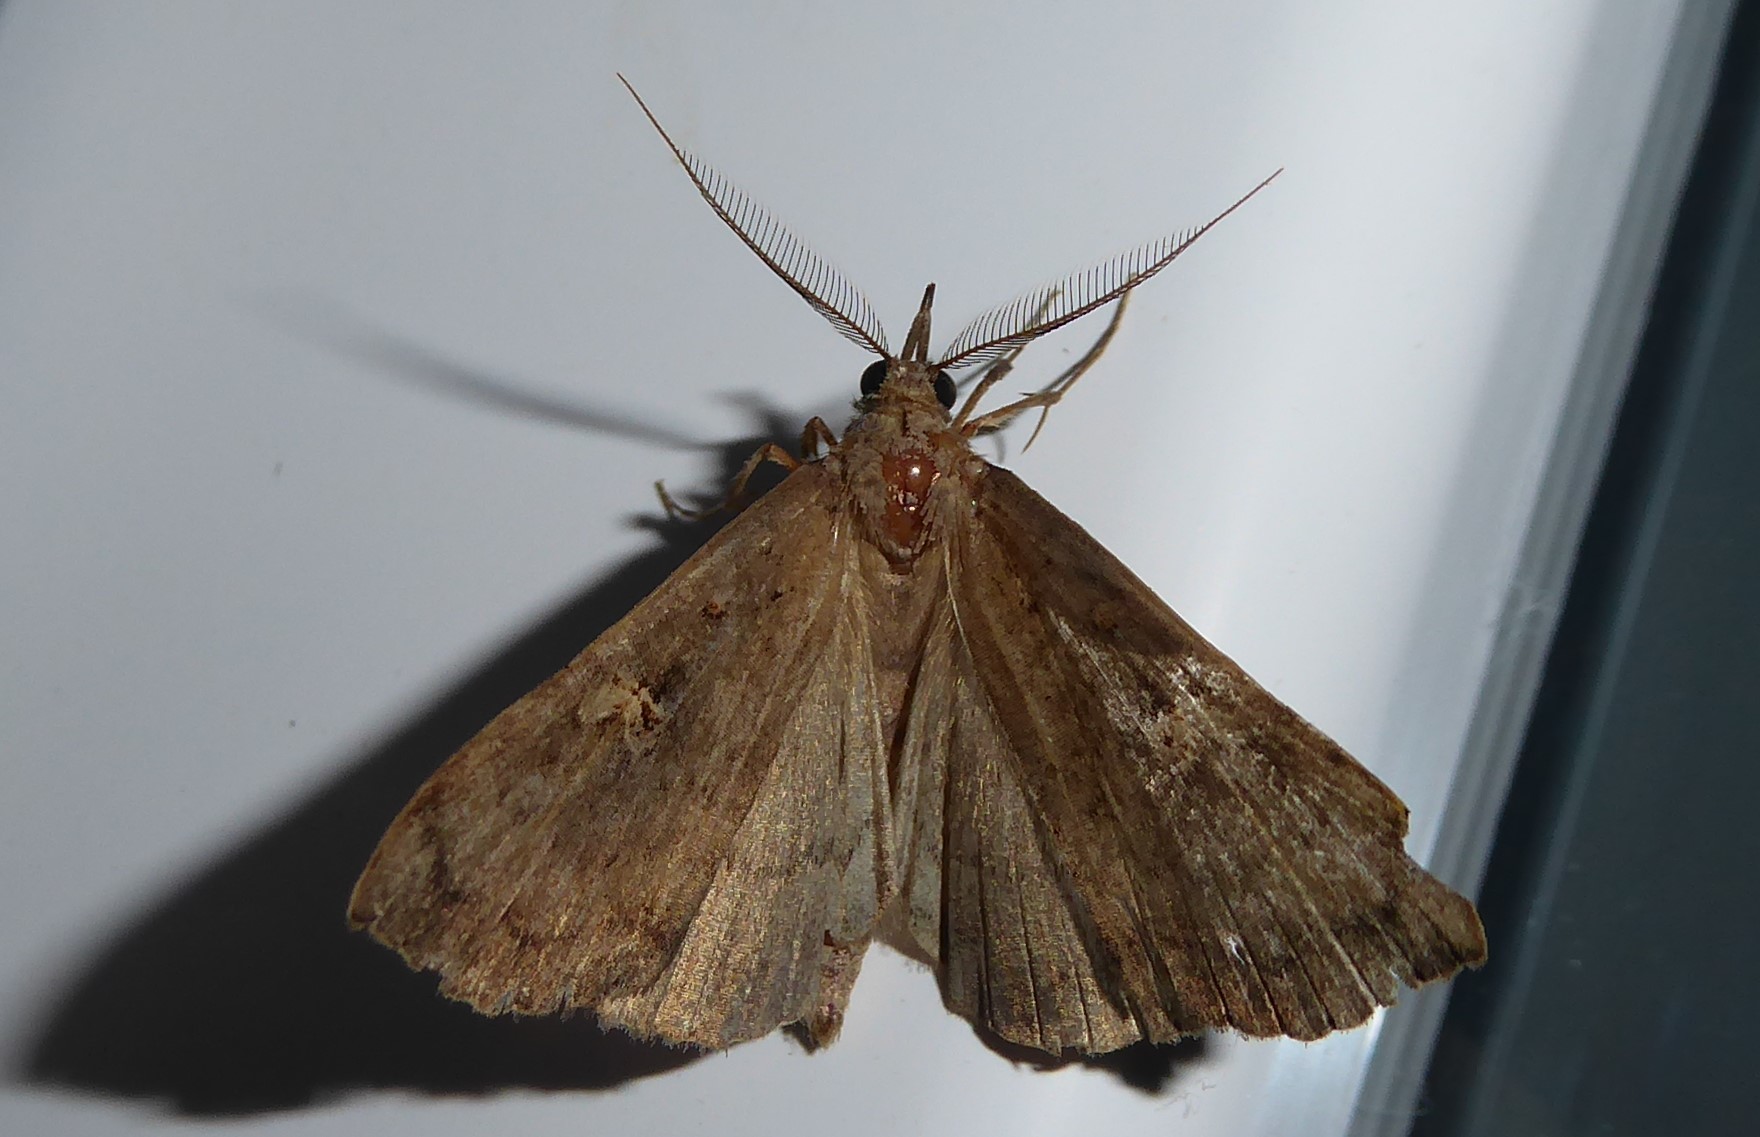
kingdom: Animalia
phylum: Arthropoda
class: Insecta
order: Lepidoptera
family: Erebidae
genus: Rhapsa
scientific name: Rhapsa scotosialis
